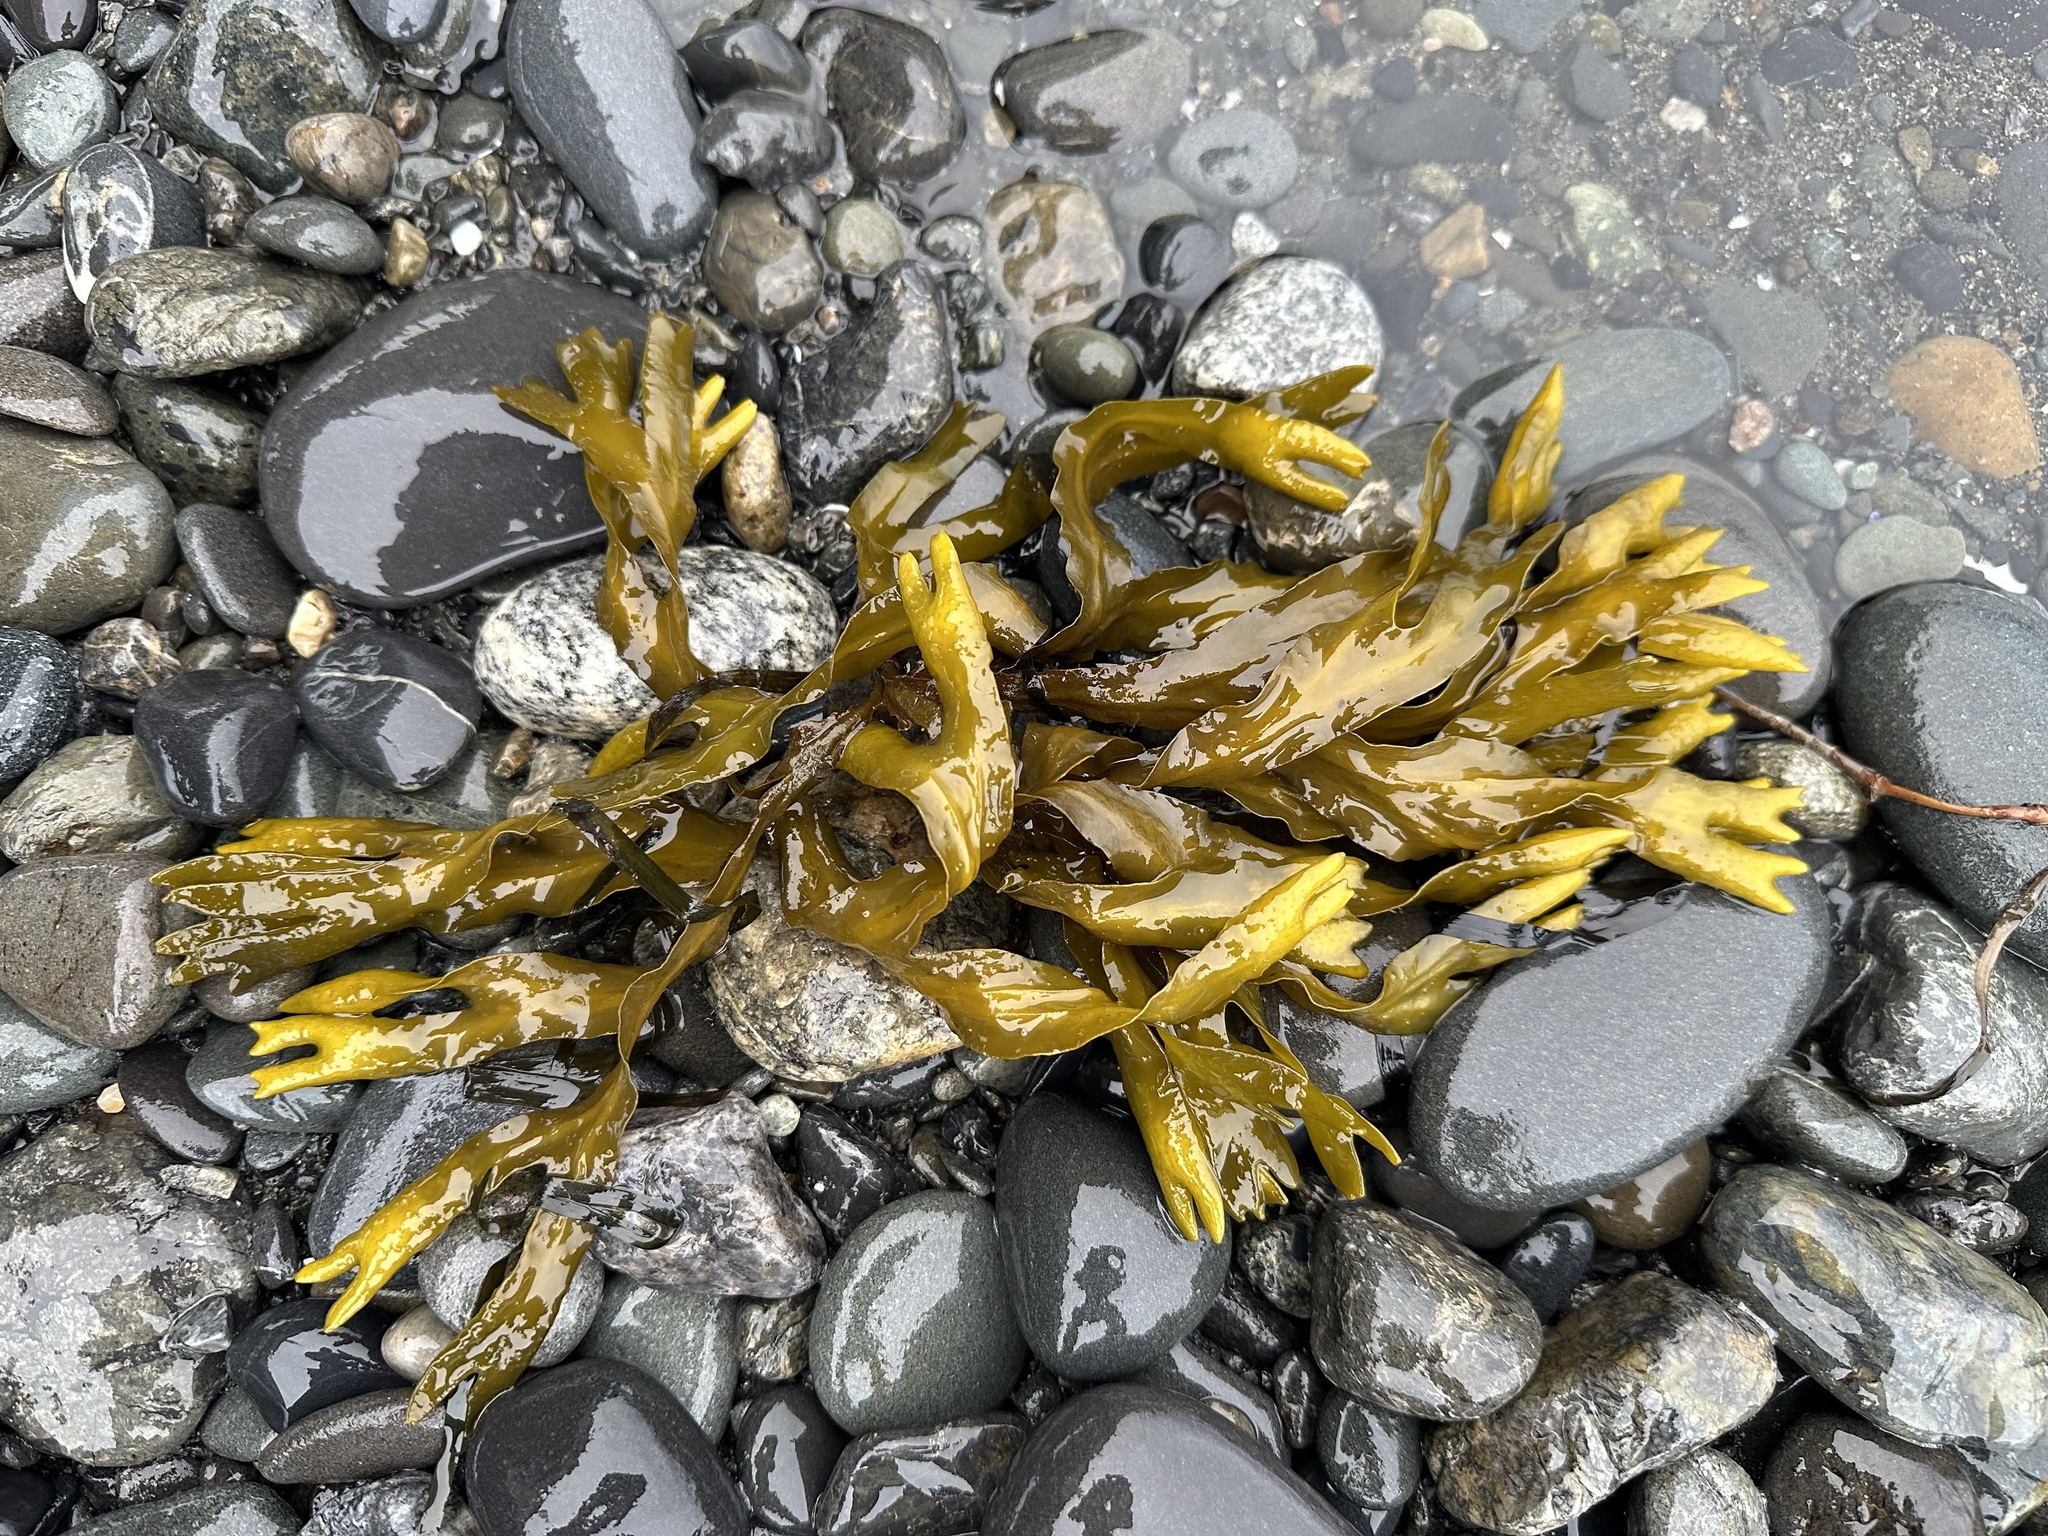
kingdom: Chromista
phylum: Ochrophyta
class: Phaeophyceae
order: Fucales
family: Fucaceae
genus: Fucus
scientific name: Fucus distichus
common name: Rockweed
